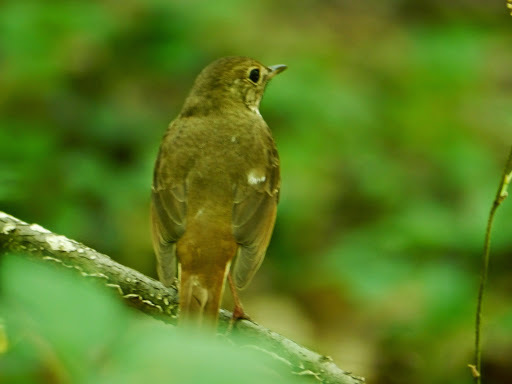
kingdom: Animalia
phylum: Chordata
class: Aves
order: Passeriformes
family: Turdidae
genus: Catharus
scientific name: Catharus guttatus
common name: Hermit thrush
